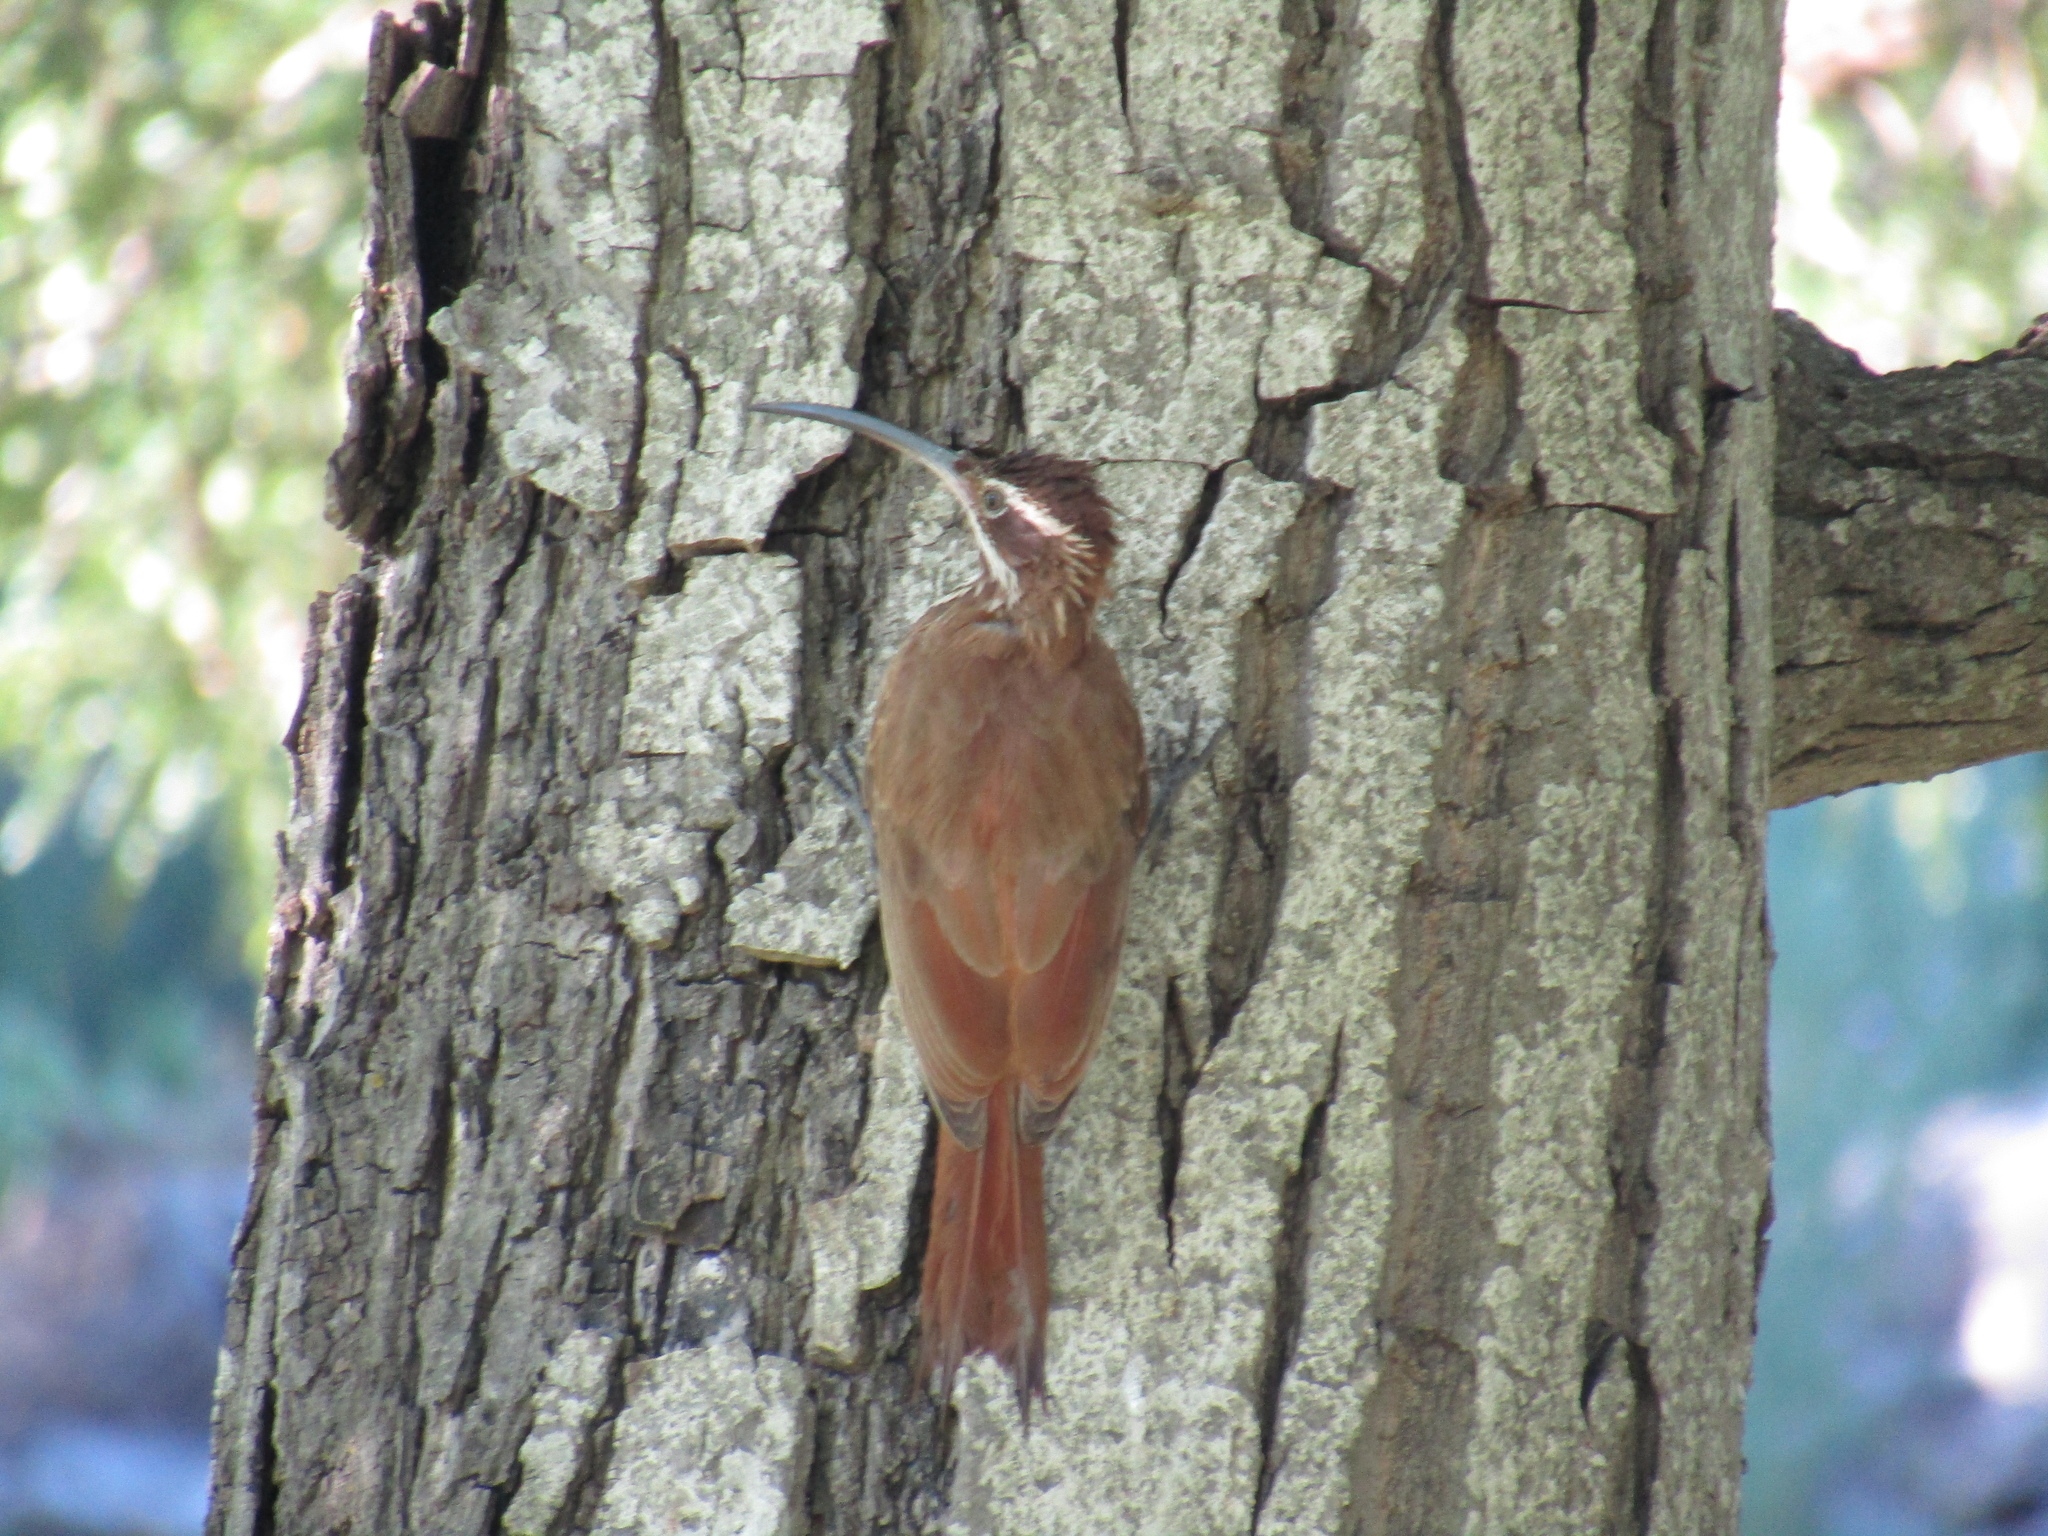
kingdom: Animalia
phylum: Chordata
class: Aves
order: Passeriformes
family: Furnariidae
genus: Drymornis
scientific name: Drymornis bridgesii
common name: Scimitar-billed woodcreeper
